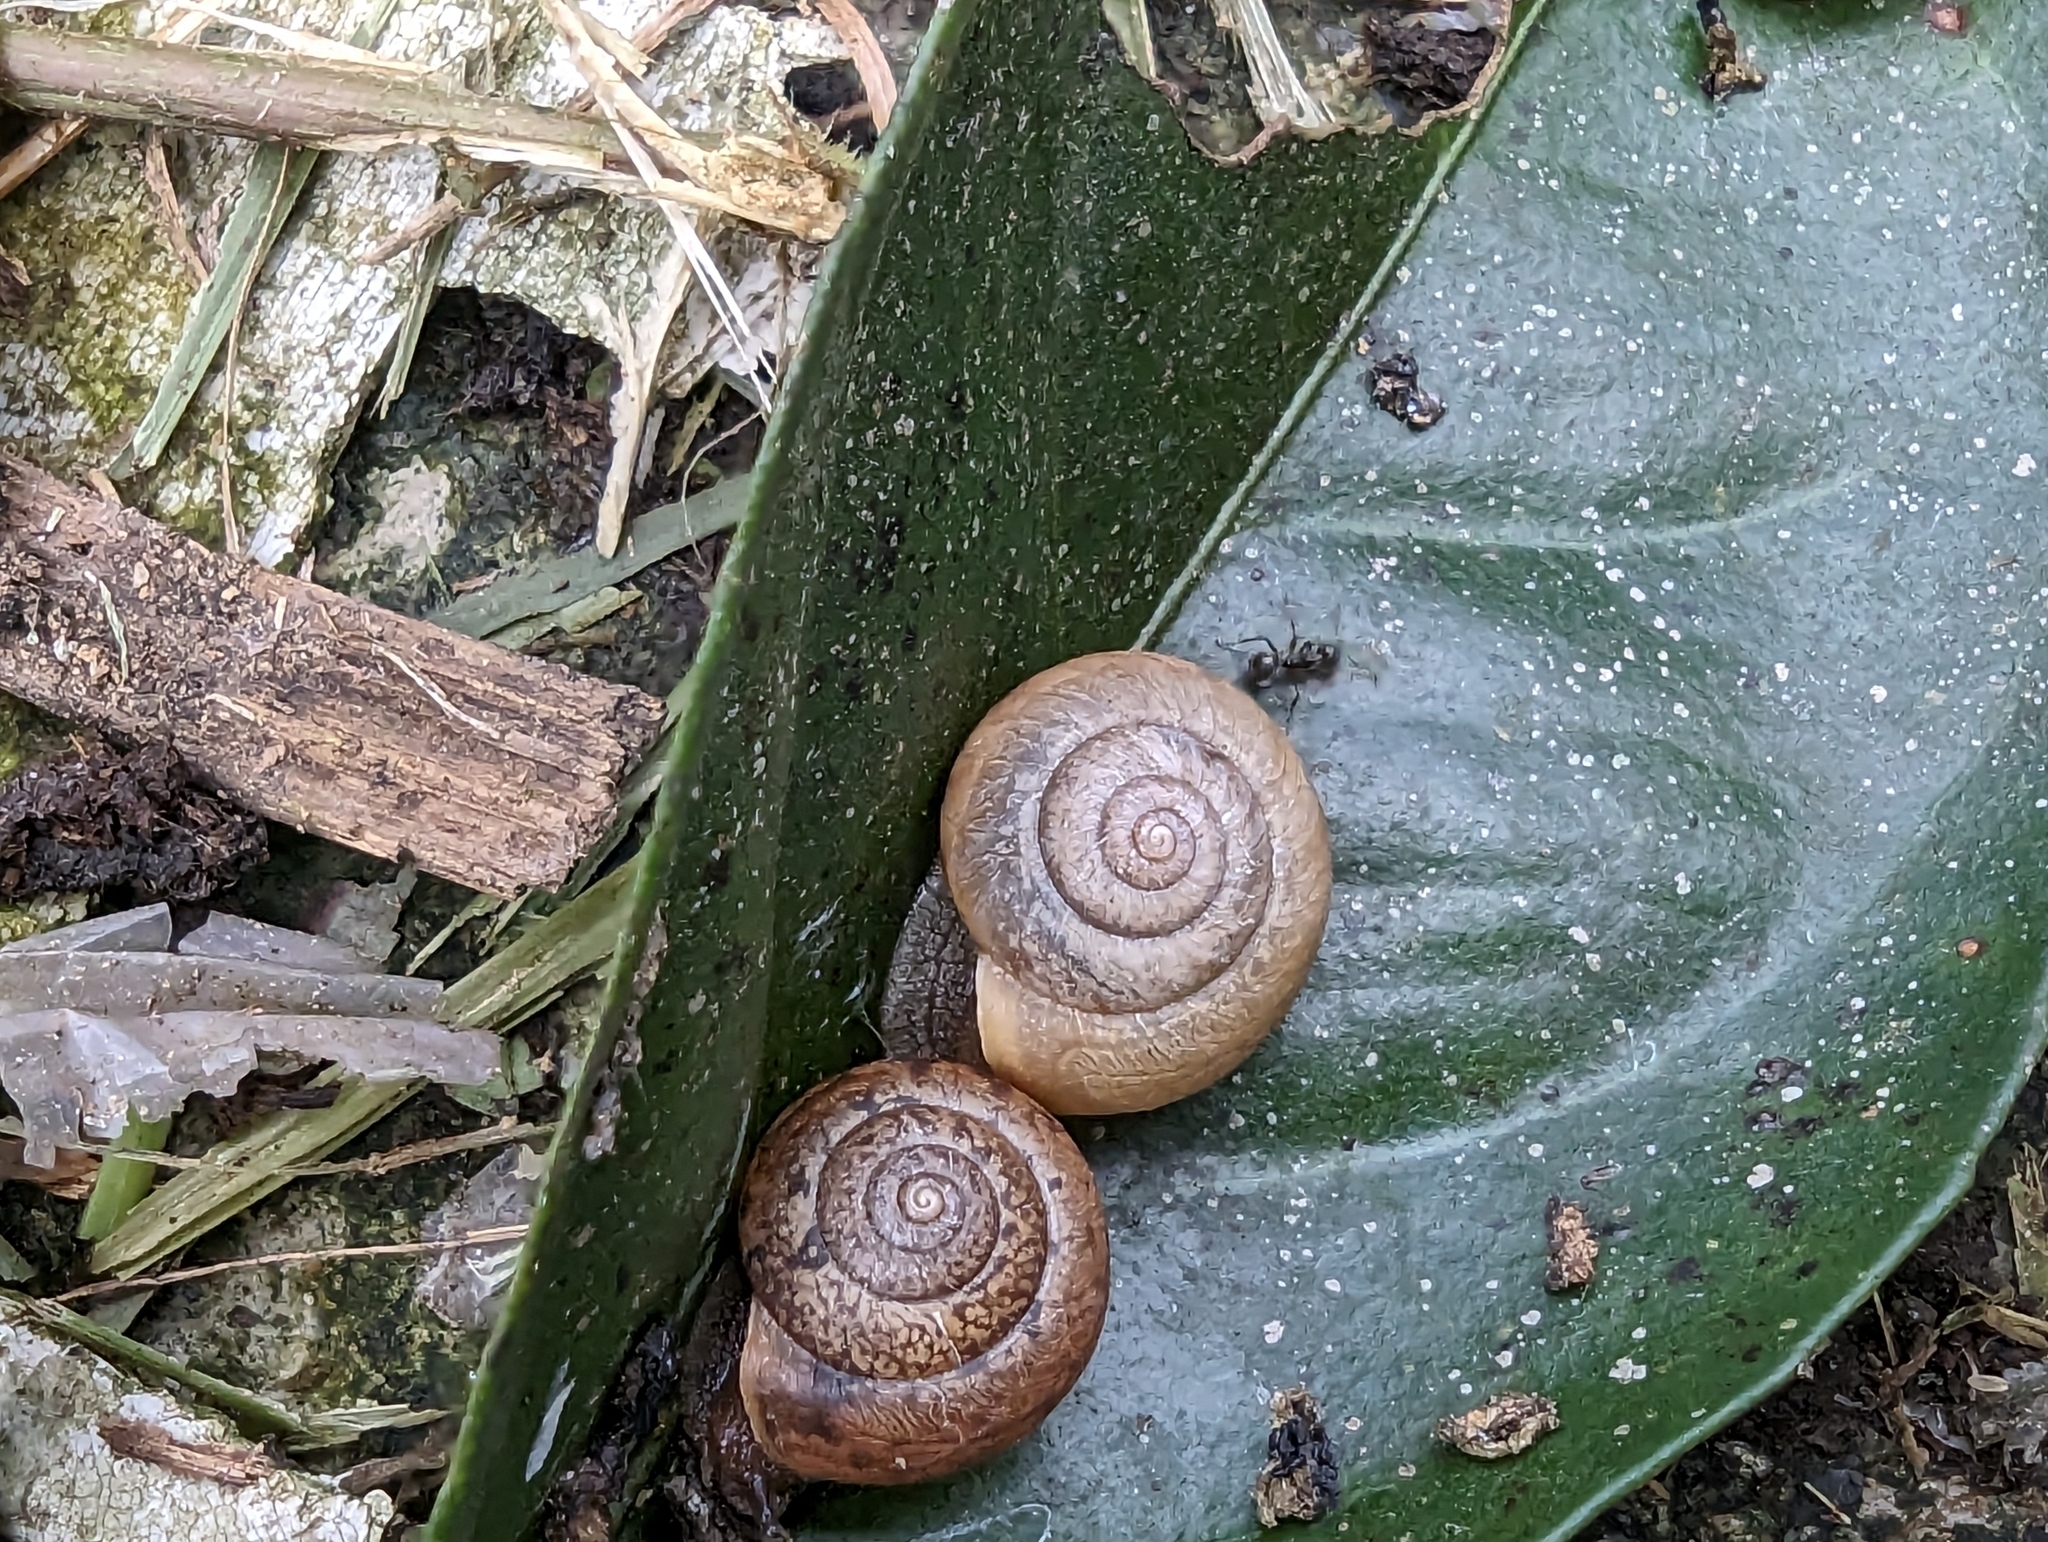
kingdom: Animalia
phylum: Mollusca
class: Gastropoda
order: Stylommatophora
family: Camaenidae
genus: Bradybaena
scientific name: Bradybaena similaris
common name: Asian trampsnail
